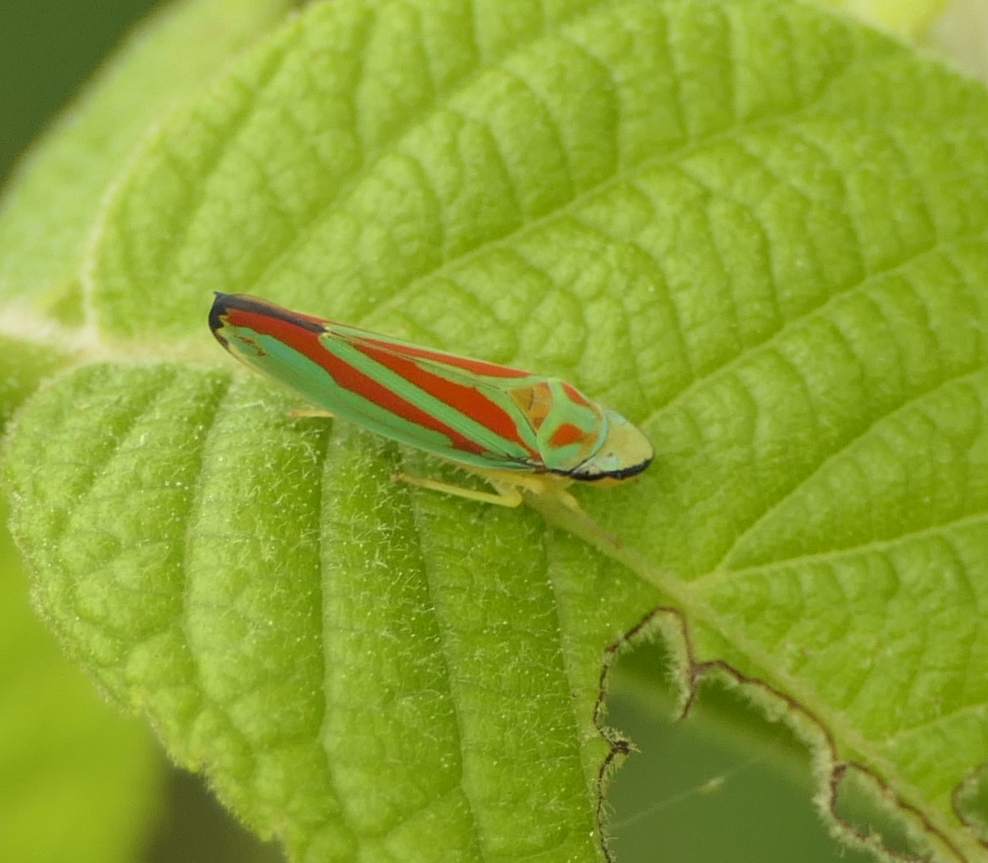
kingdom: Animalia
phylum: Arthropoda
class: Insecta
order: Hemiptera
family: Cicadellidae
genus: Graphocephala
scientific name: Graphocephala fennahi
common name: Rhododendron leafhopper
